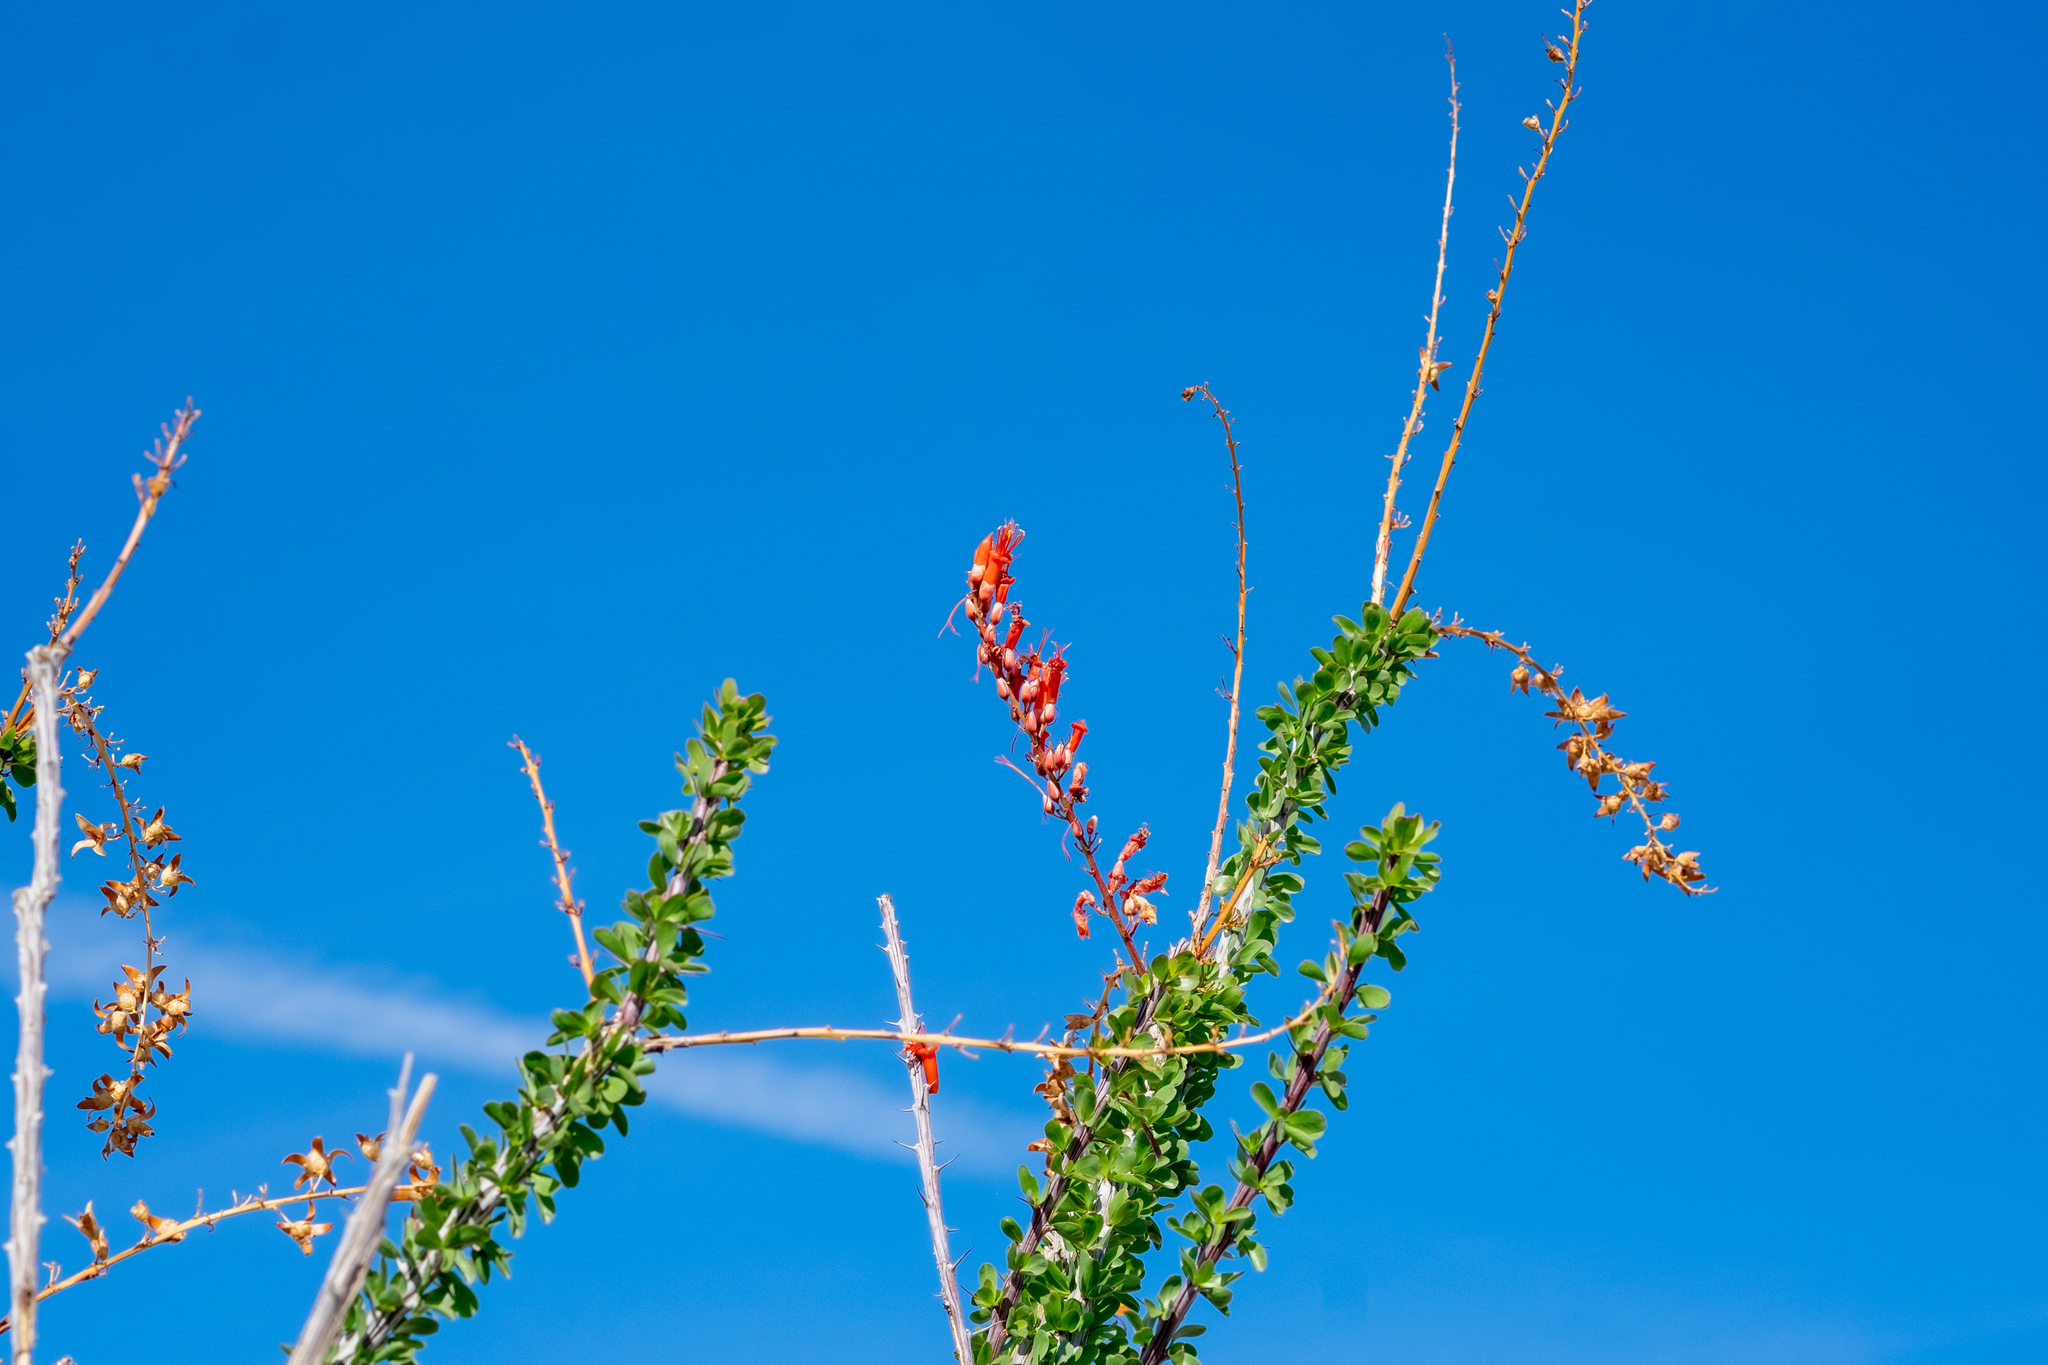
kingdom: Plantae
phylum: Tracheophyta
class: Magnoliopsida
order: Ericales
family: Fouquieriaceae
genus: Fouquieria
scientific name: Fouquieria splendens
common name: Vine-cactus
